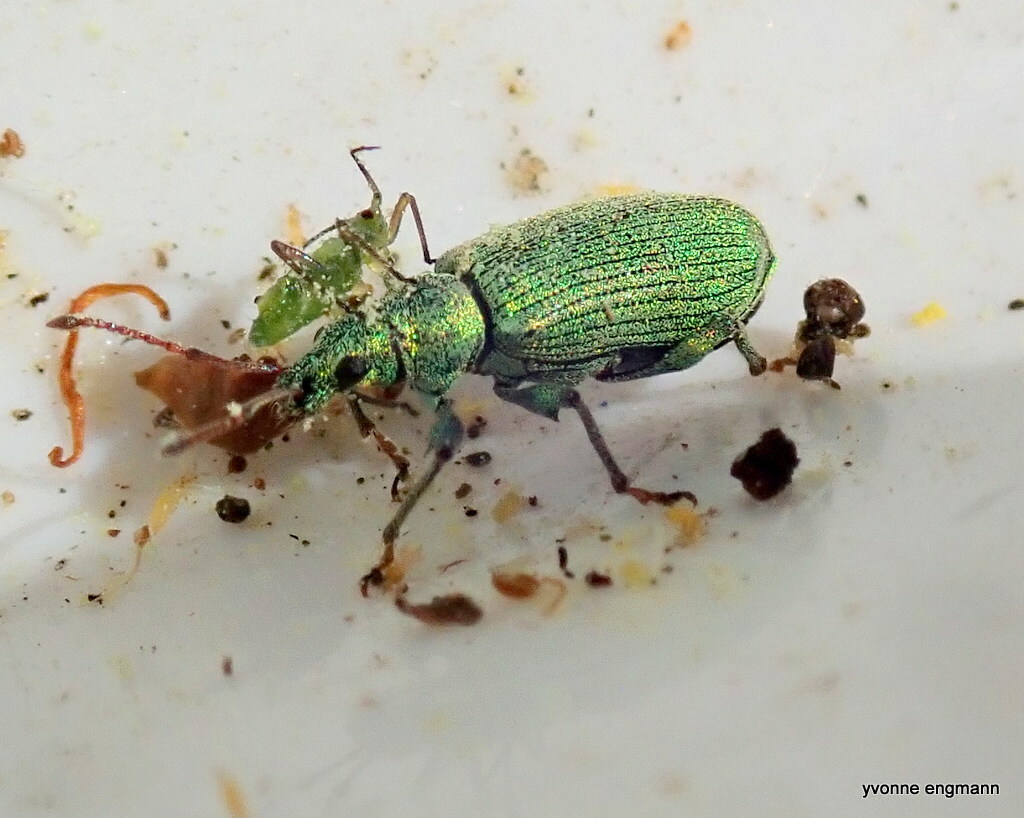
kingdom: Animalia
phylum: Arthropoda
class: Insecta
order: Coleoptera
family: Curculionidae
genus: Phyllobius
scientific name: Phyllobius maculicornis
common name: Green leaf weevil
